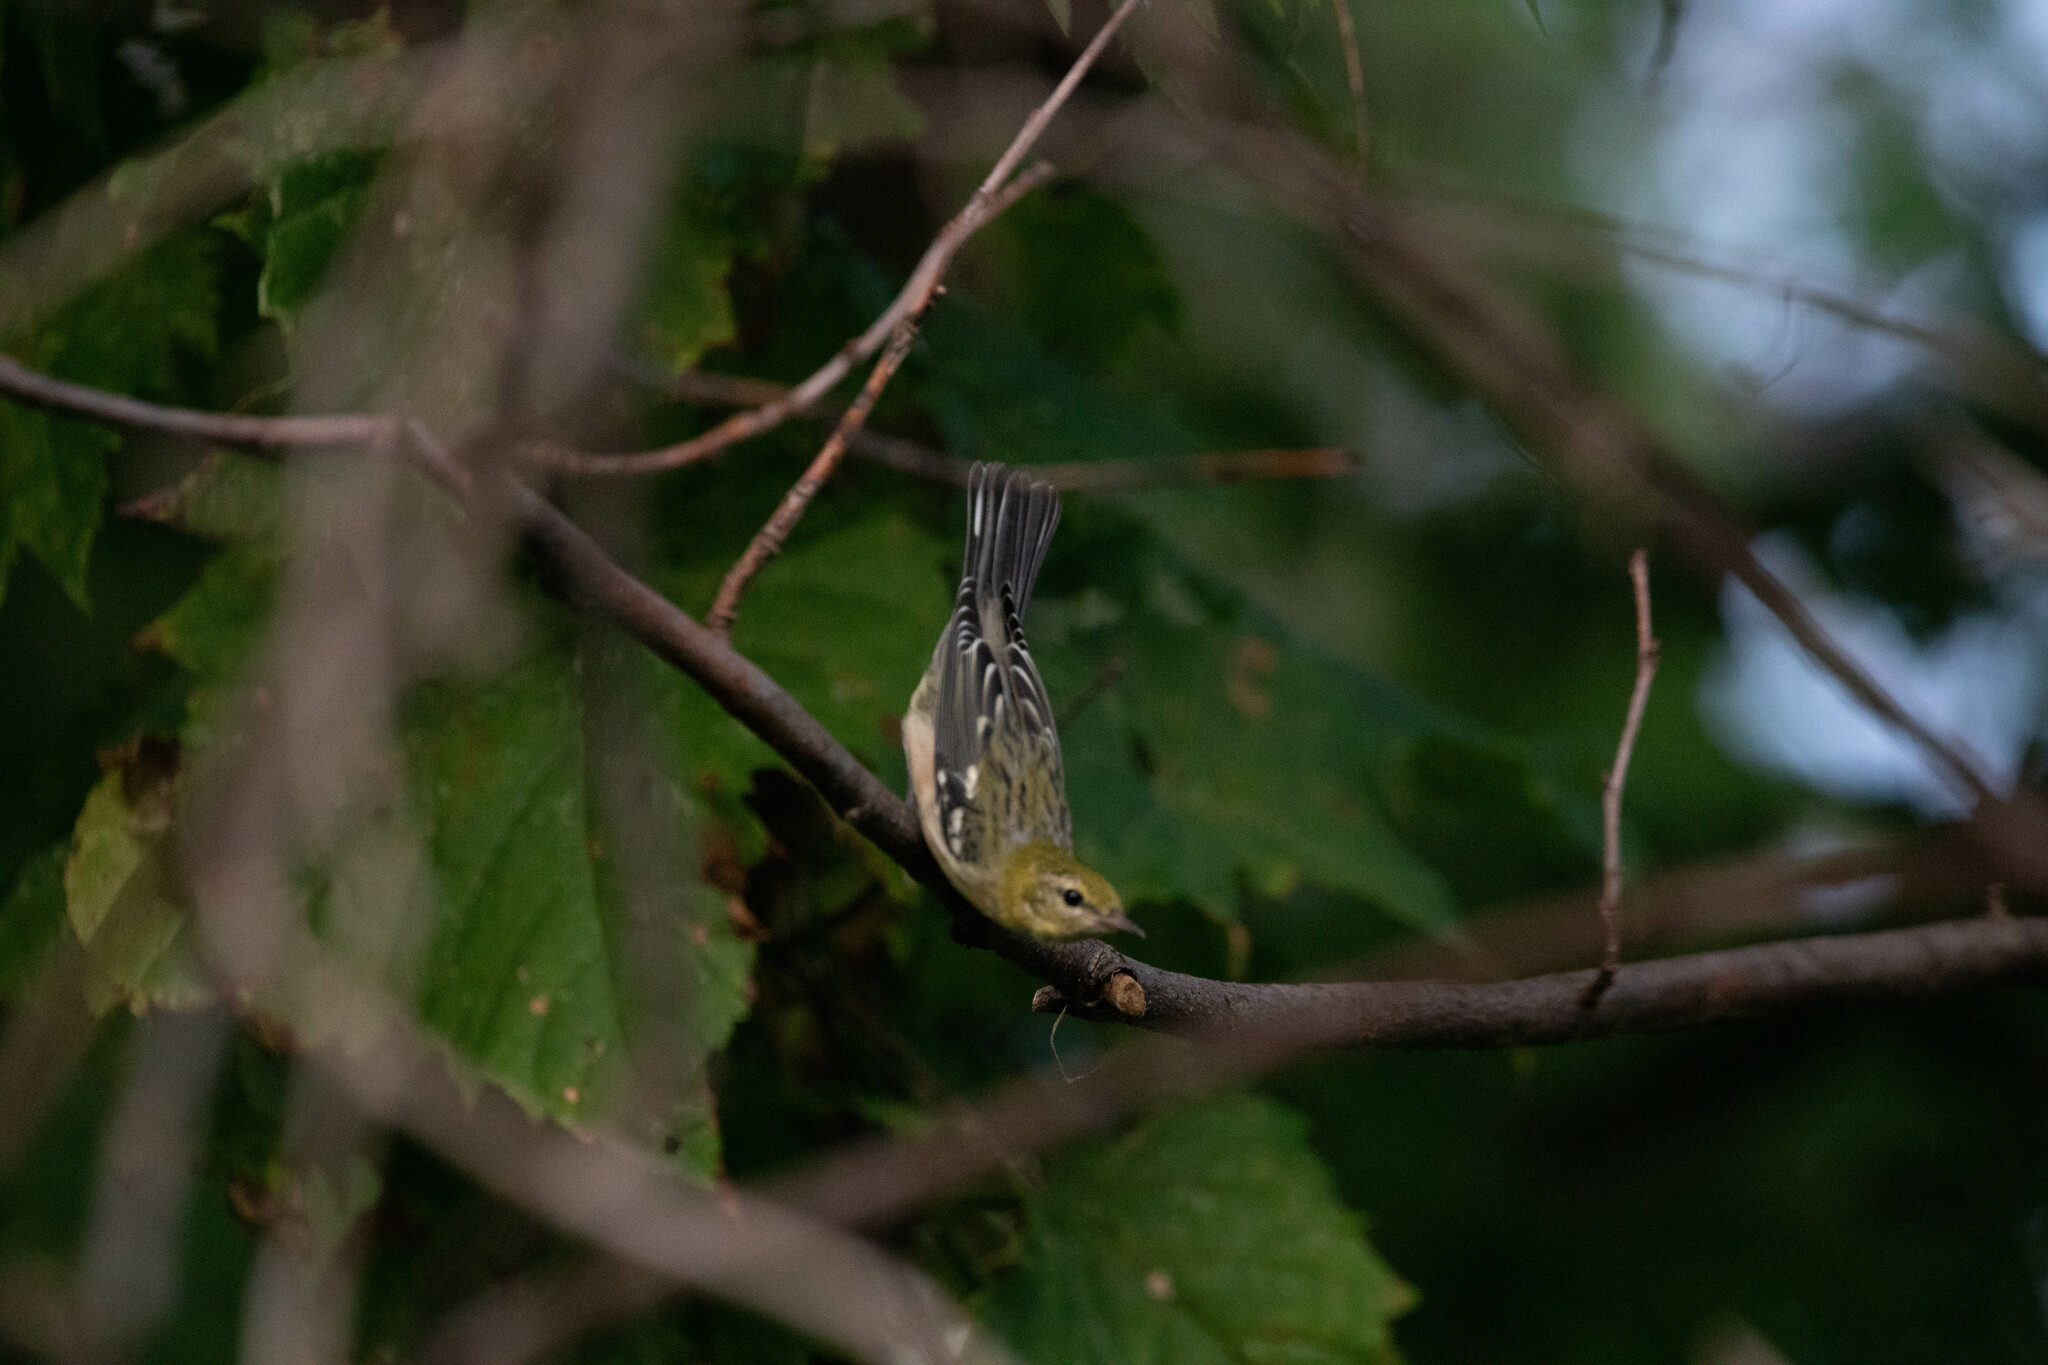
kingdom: Animalia
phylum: Chordata
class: Aves
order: Passeriformes
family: Parulidae
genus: Setophaga
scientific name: Setophaga castanea
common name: Bay-breasted warbler
